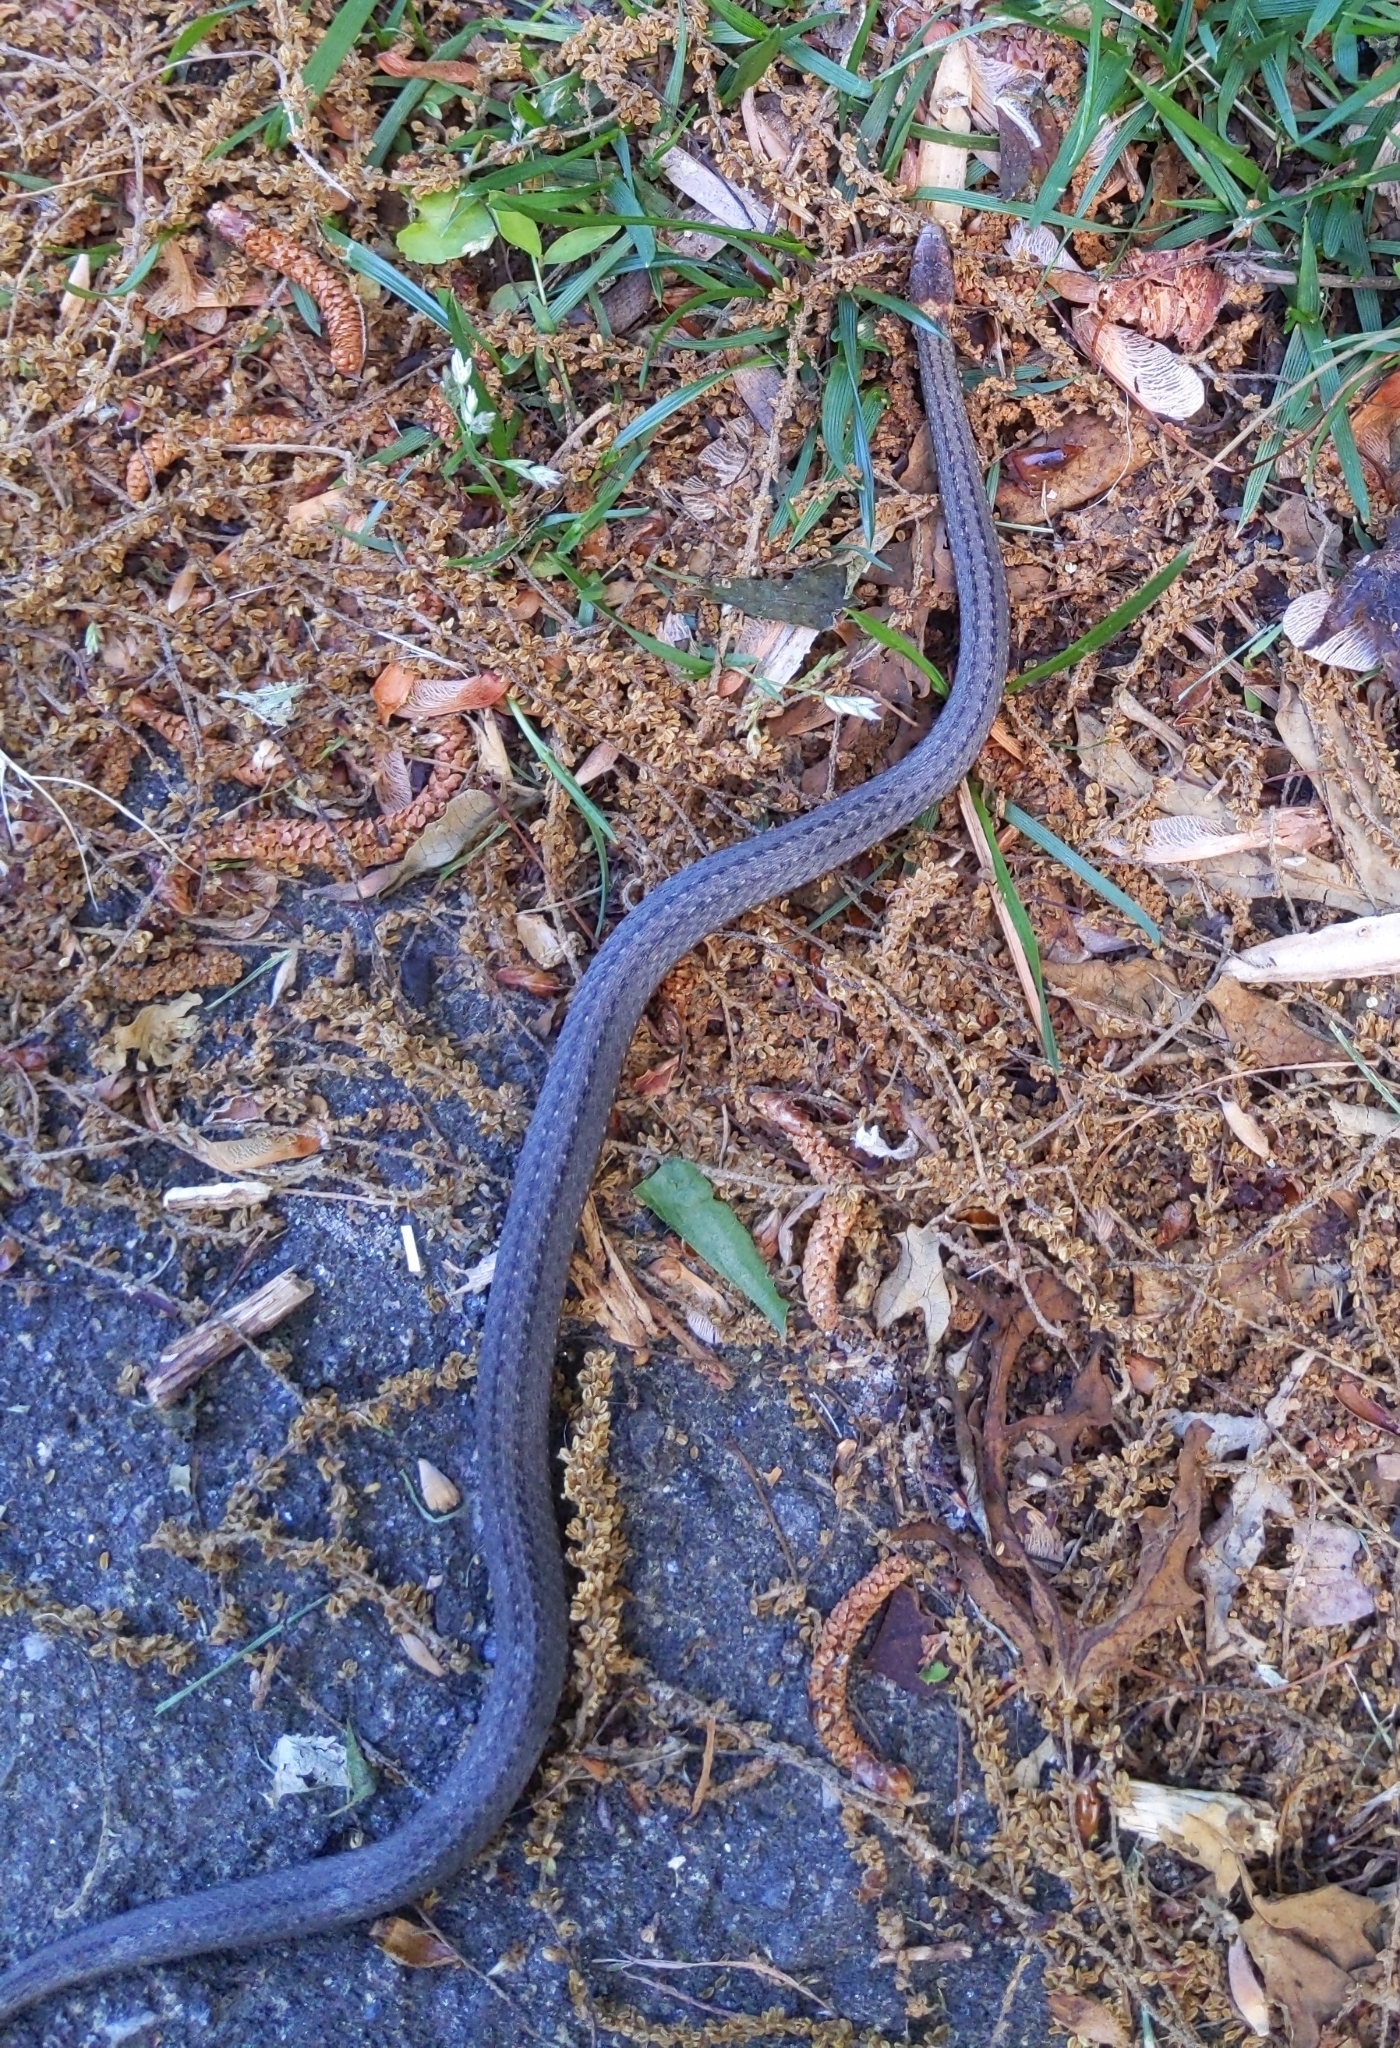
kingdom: Animalia
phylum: Chordata
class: Squamata
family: Colubridae
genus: Storeria
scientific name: Storeria occipitomaculata
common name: Redbelly snake
